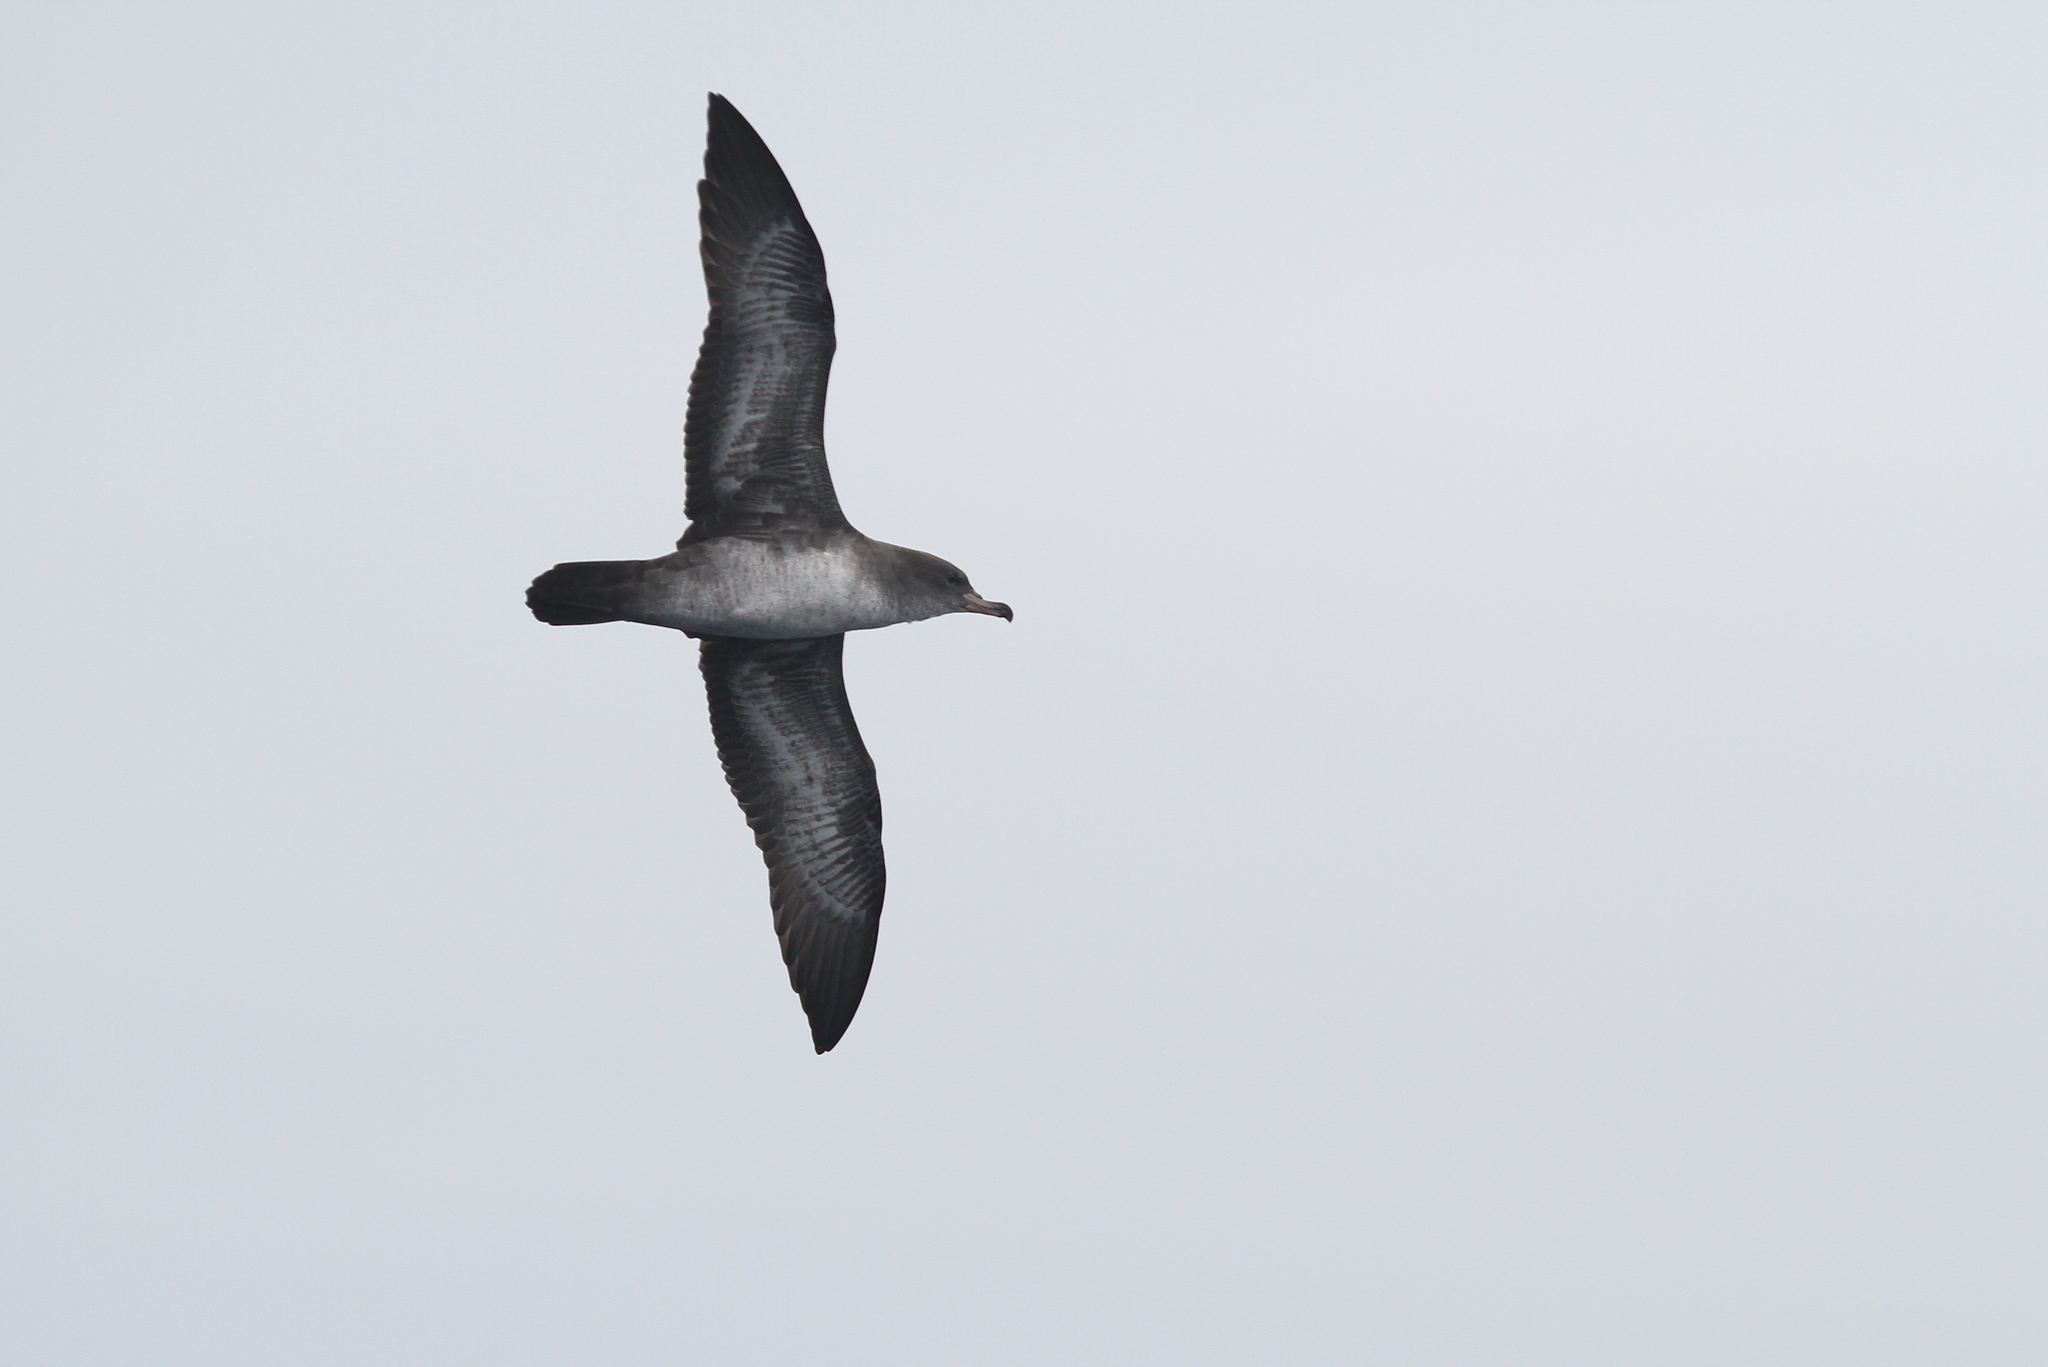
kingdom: Animalia
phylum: Chordata
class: Aves
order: Procellariiformes
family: Procellariidae
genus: Puffinus
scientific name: Puffinus creatopus
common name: Pink-footed shearwater
